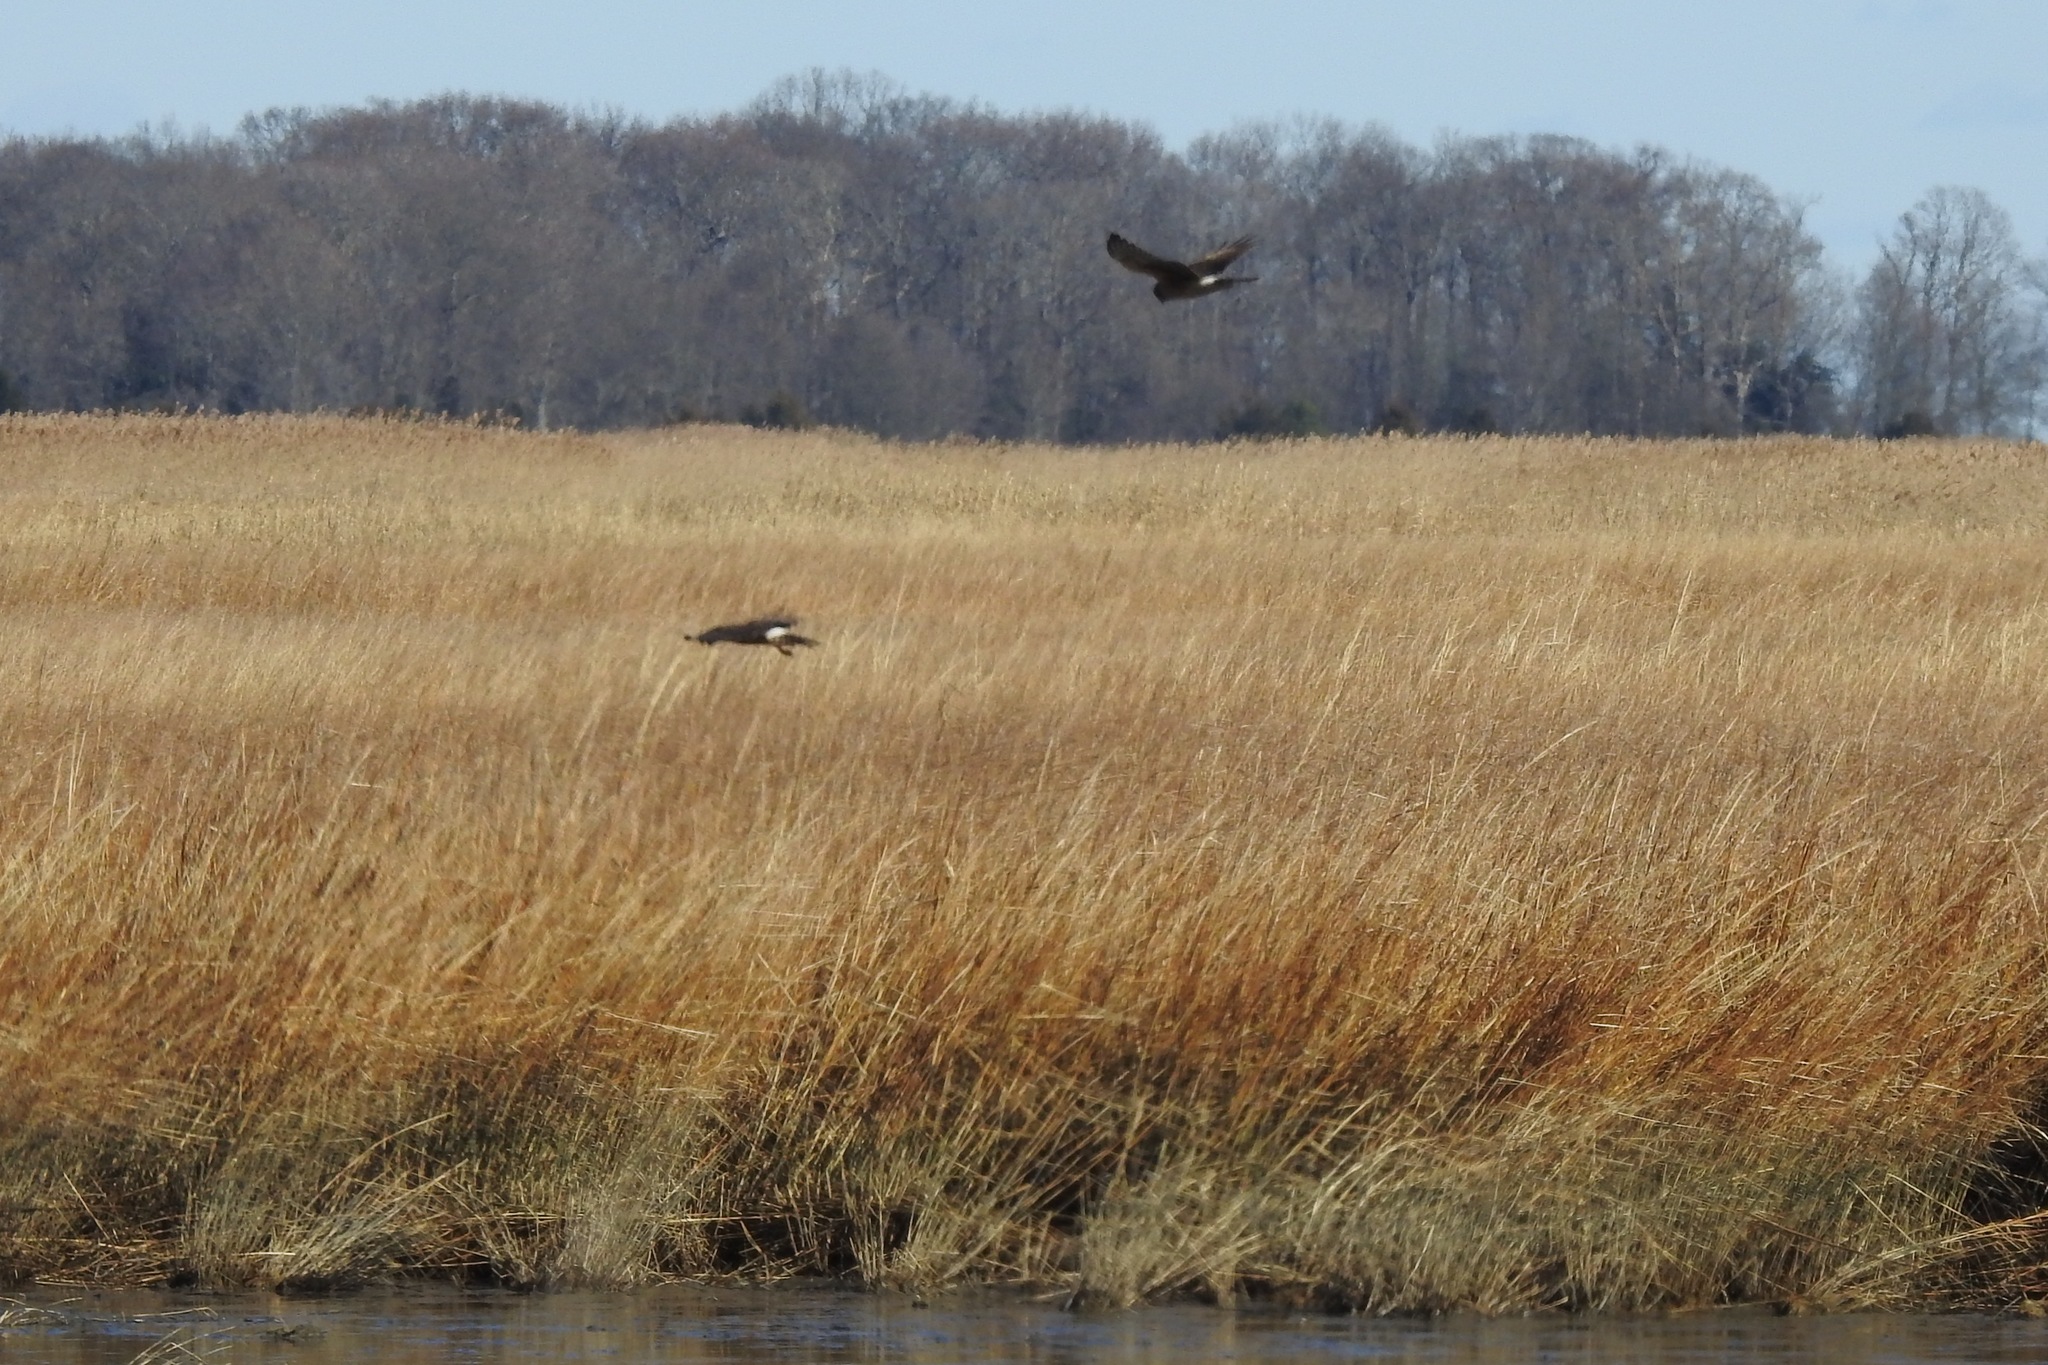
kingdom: Animalia
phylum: Chordata
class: Aves
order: Accipitriformes
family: Accipitridae
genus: Circus
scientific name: Circus cyaneus
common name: Hen harrier
